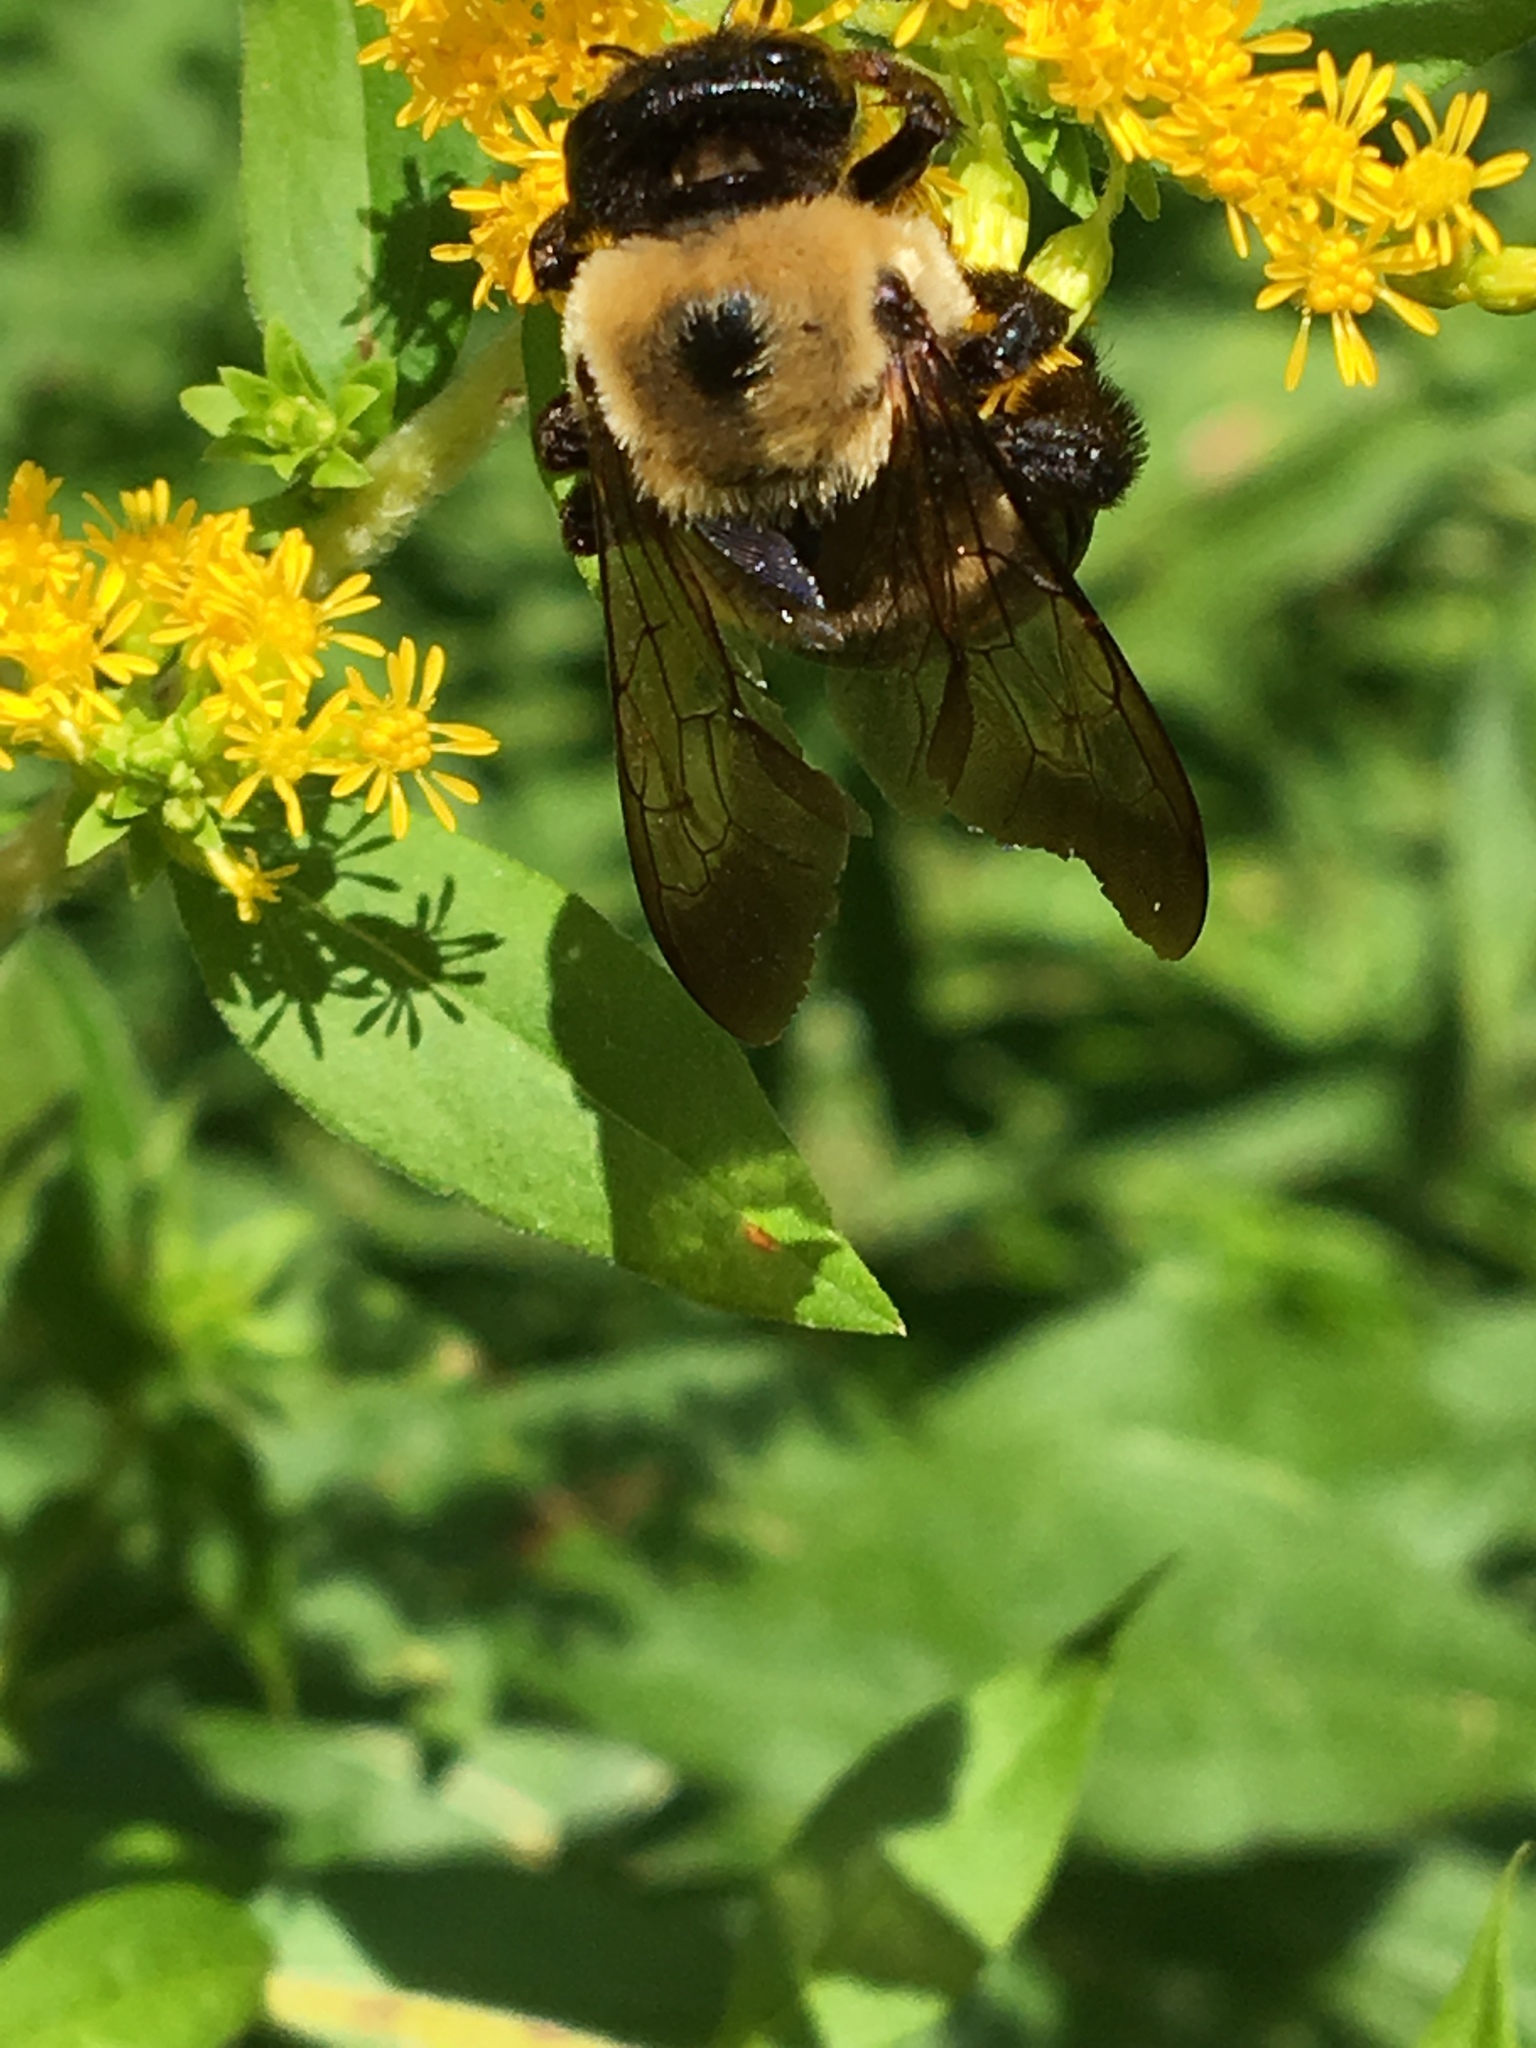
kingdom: Animalia
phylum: Arthropoda
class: Insecta
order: Hymenoptera
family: Apidae
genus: Xylocopa
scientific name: Xylocopa virginica
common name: Carpenter bee
